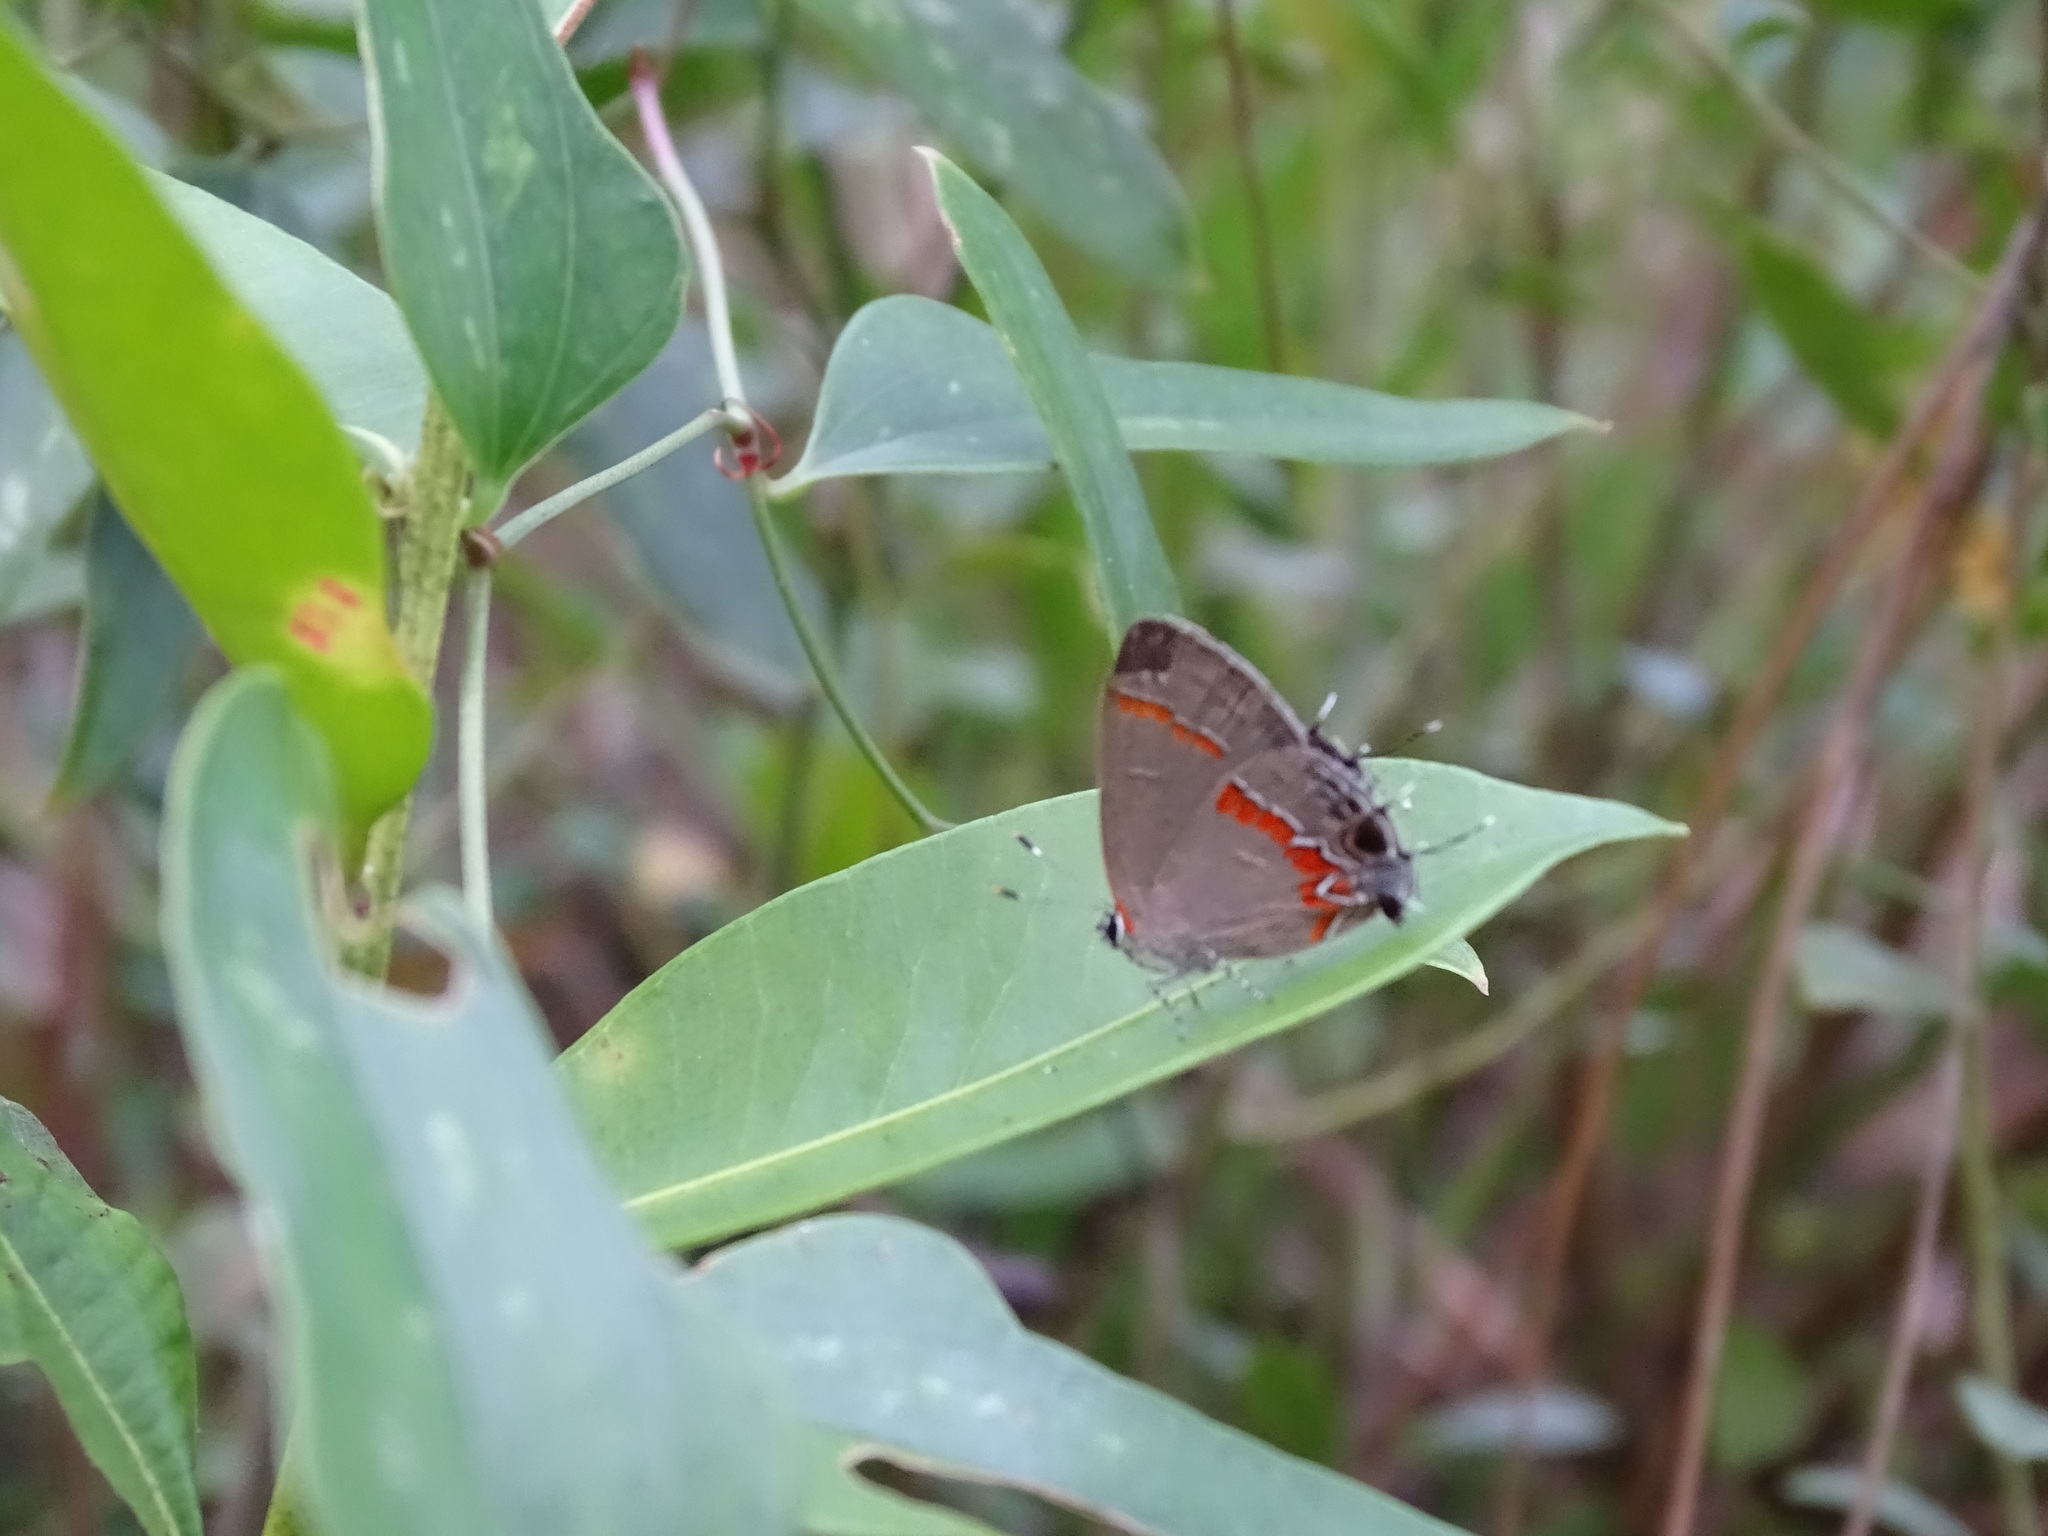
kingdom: Animalia
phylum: Arthropoda
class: Insecta
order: Lepidoptera
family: Lycaenidae
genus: Calycopis
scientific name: Calycopis cecrops
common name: Red-banded hairstreak
